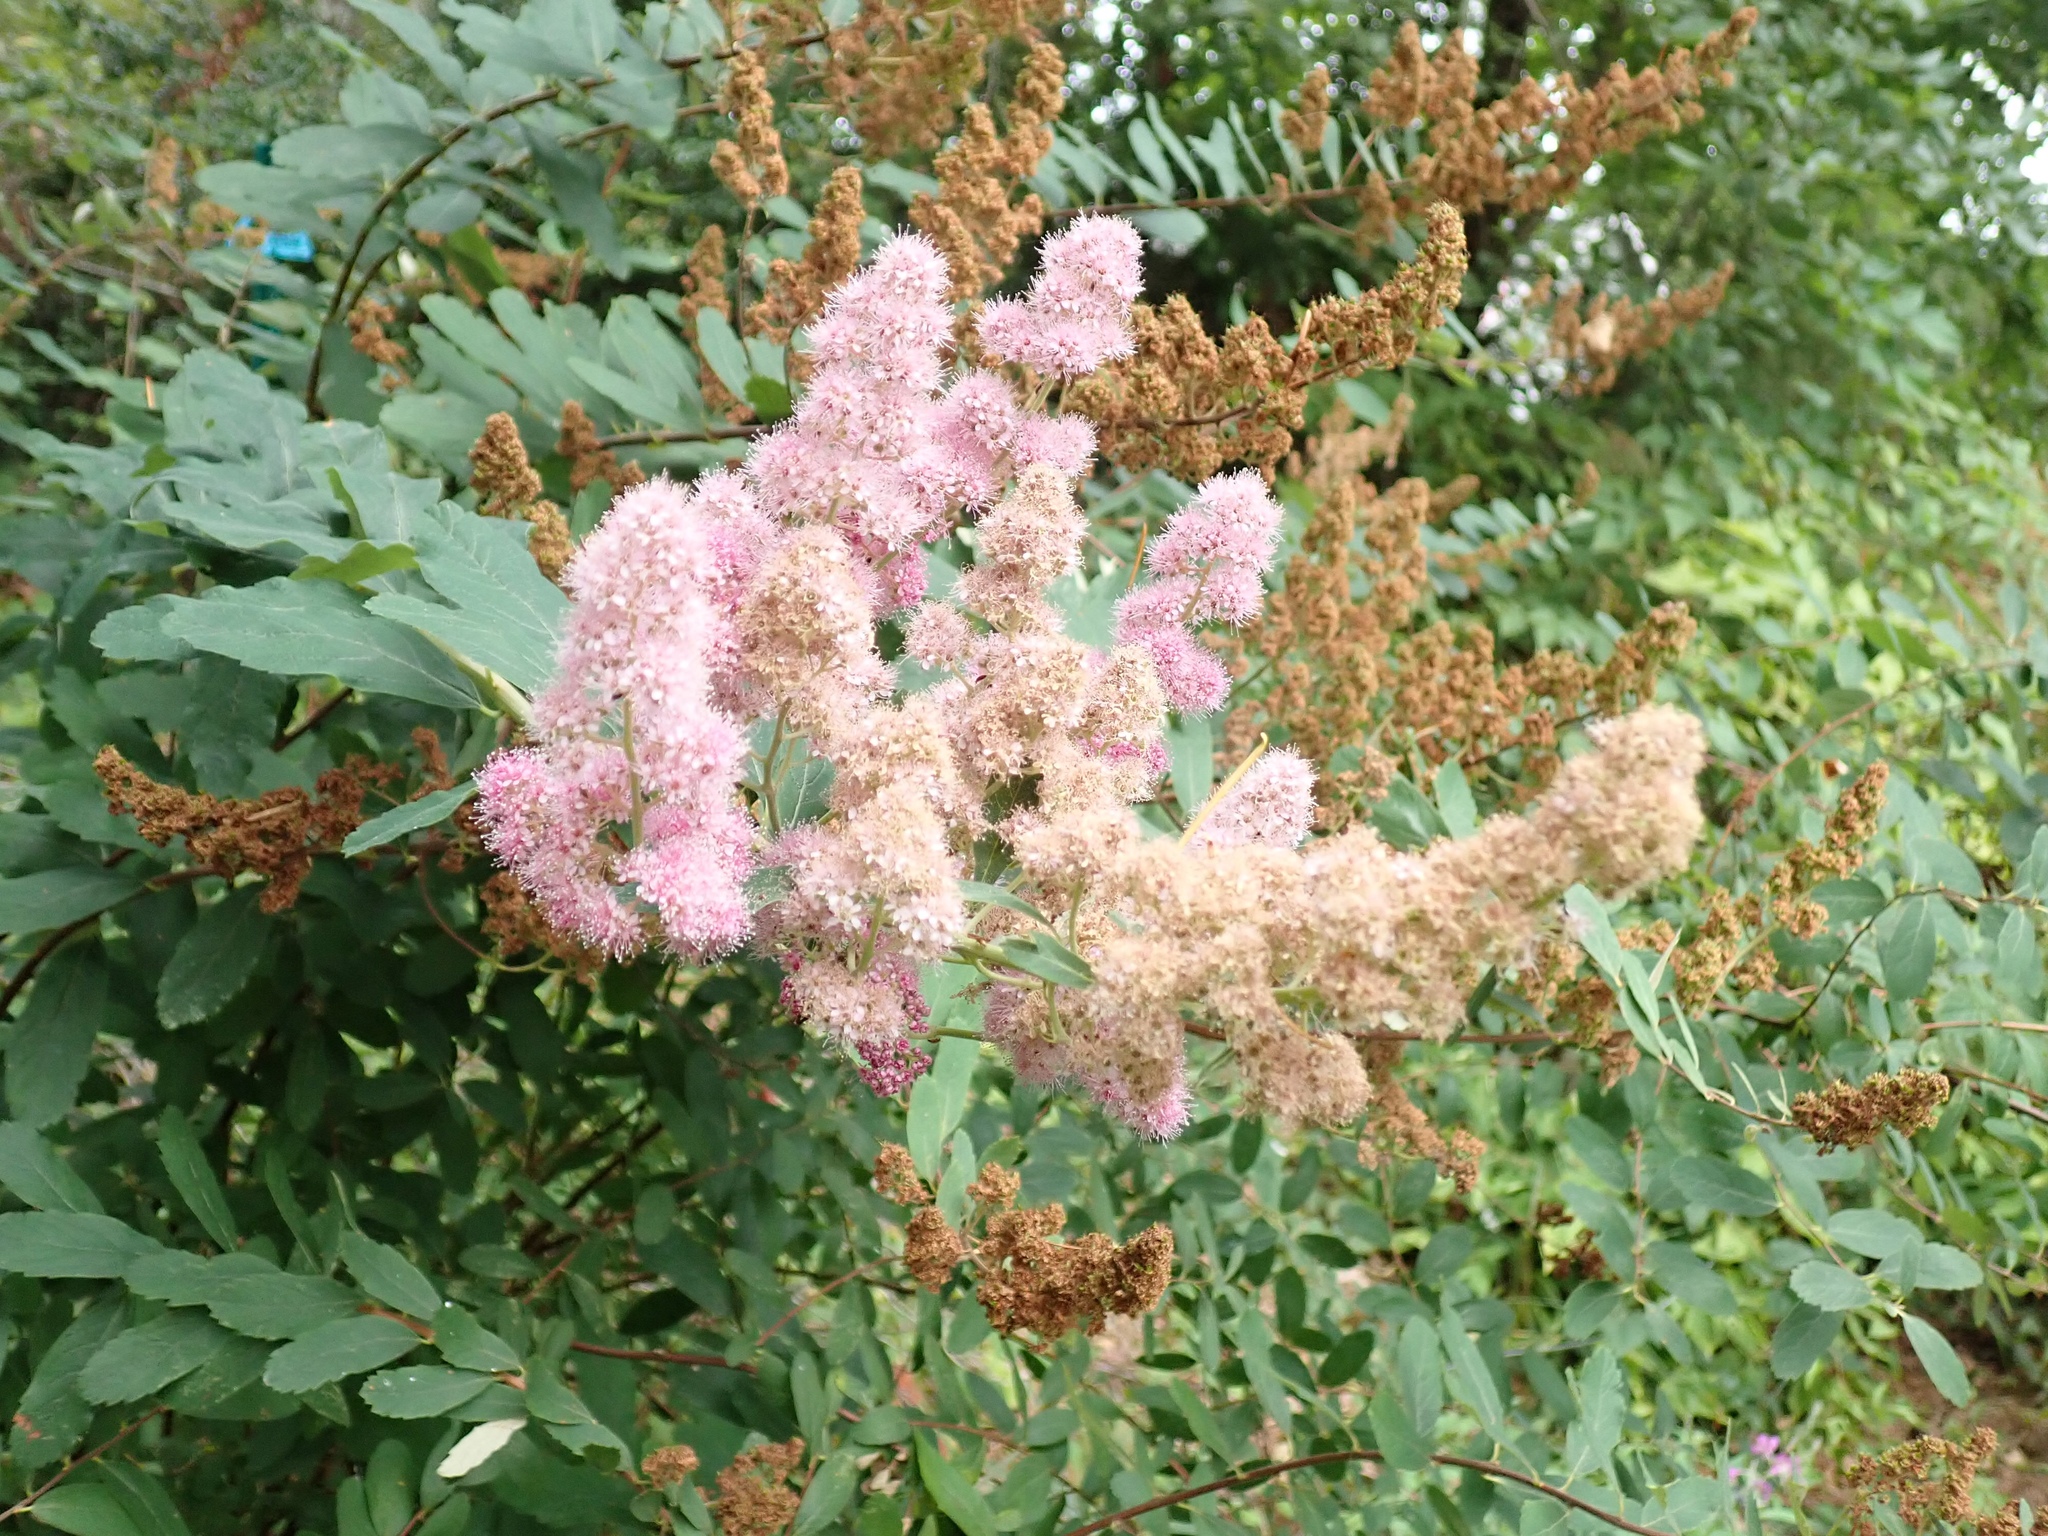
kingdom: Plantae
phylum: Tracheophyta
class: Magnoliopsida
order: Rosales
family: Rosaceae
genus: Spiraea
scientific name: Spiraea douglasii
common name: Steeplebush
